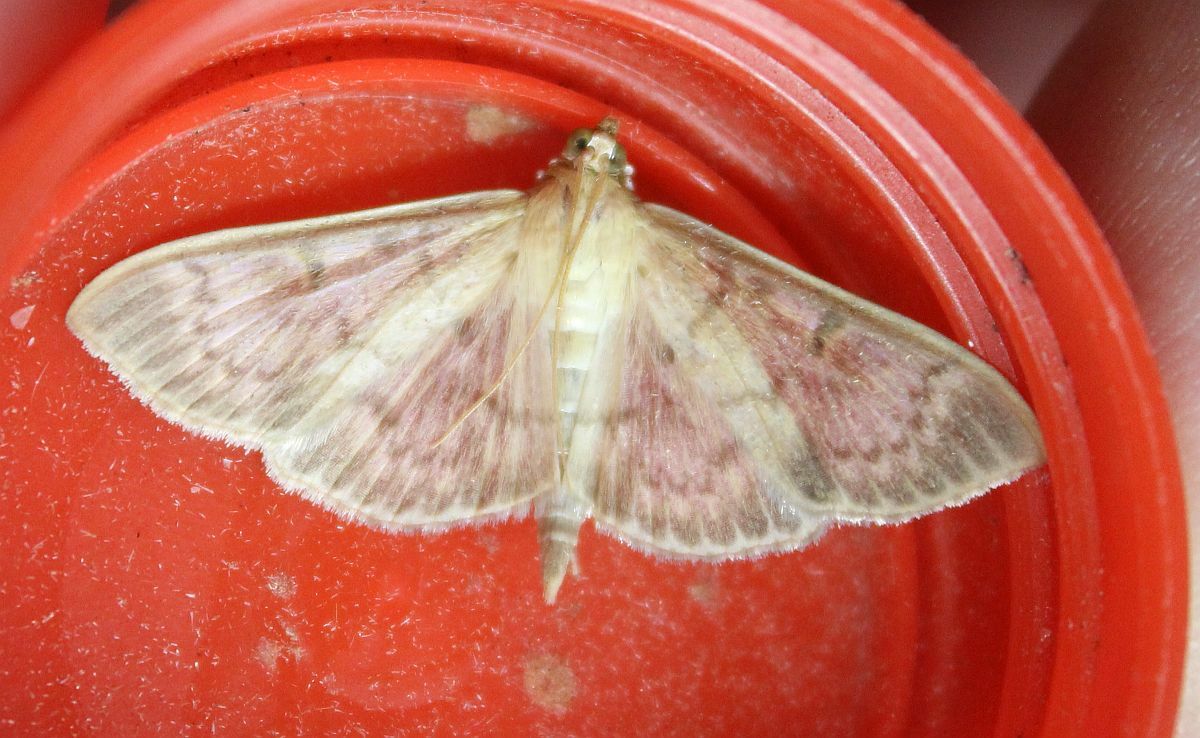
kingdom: Animalia
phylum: Arthropoda
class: Insecta
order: Lepidoptera
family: Crambidae
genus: Patania
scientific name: Patania ruralis
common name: Mother of pearl
